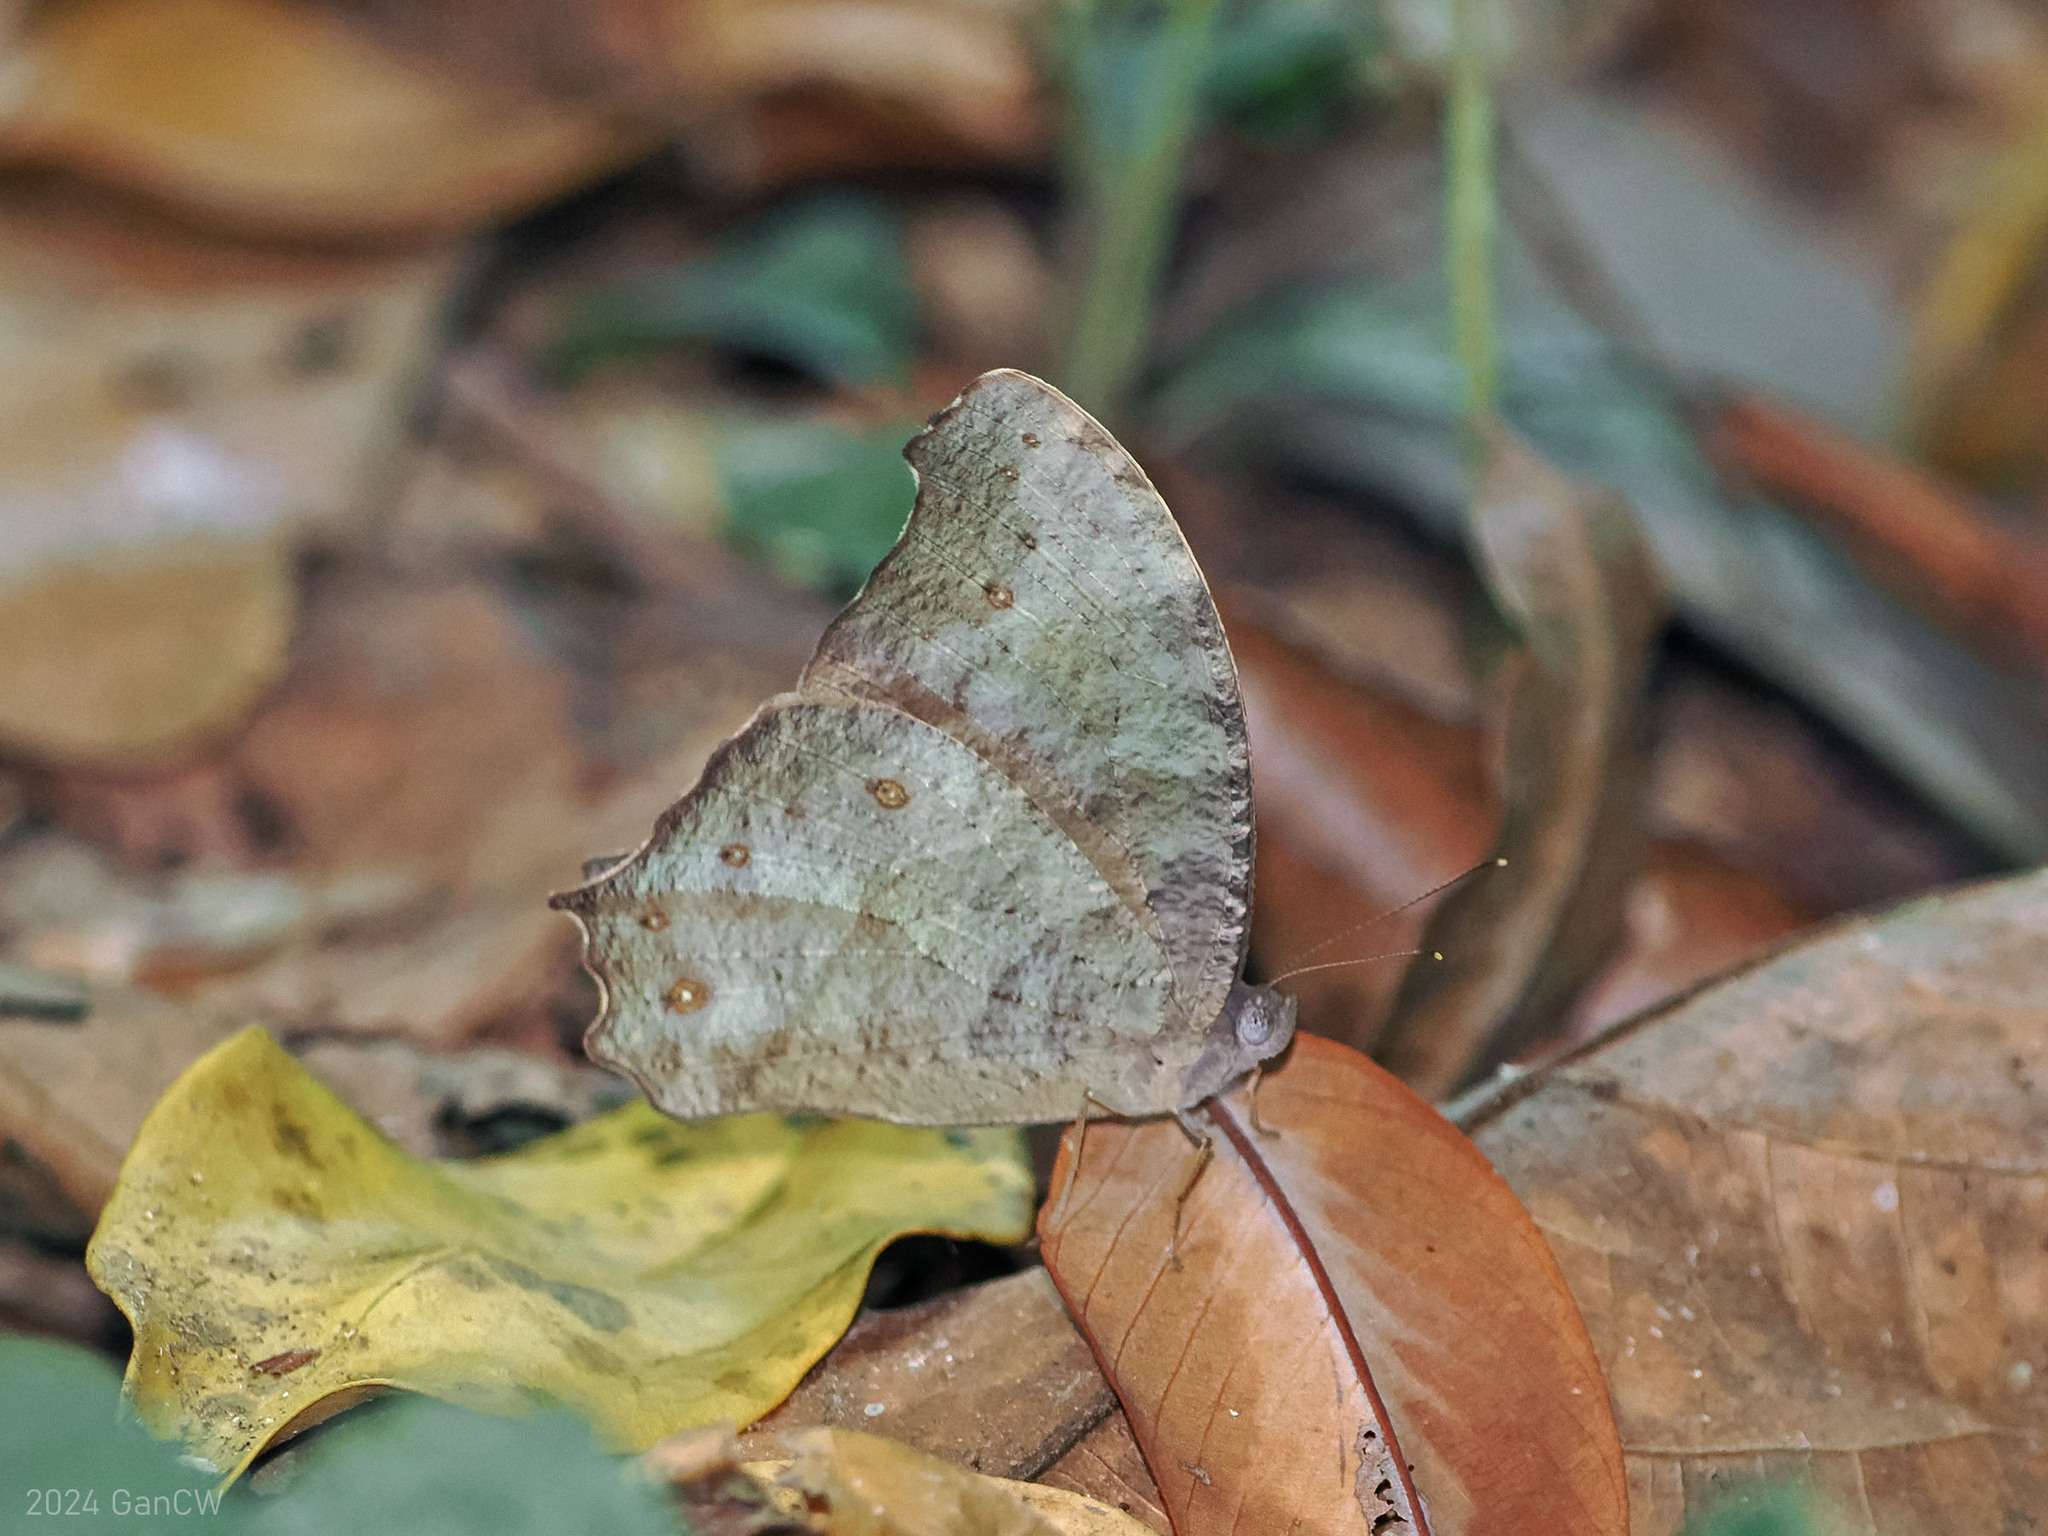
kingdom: Animalia
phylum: Arthropoda
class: Insecta
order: Lepidoptera
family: Nymphalidae
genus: Melanitis
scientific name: Melanitis leda
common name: Twilight brown
